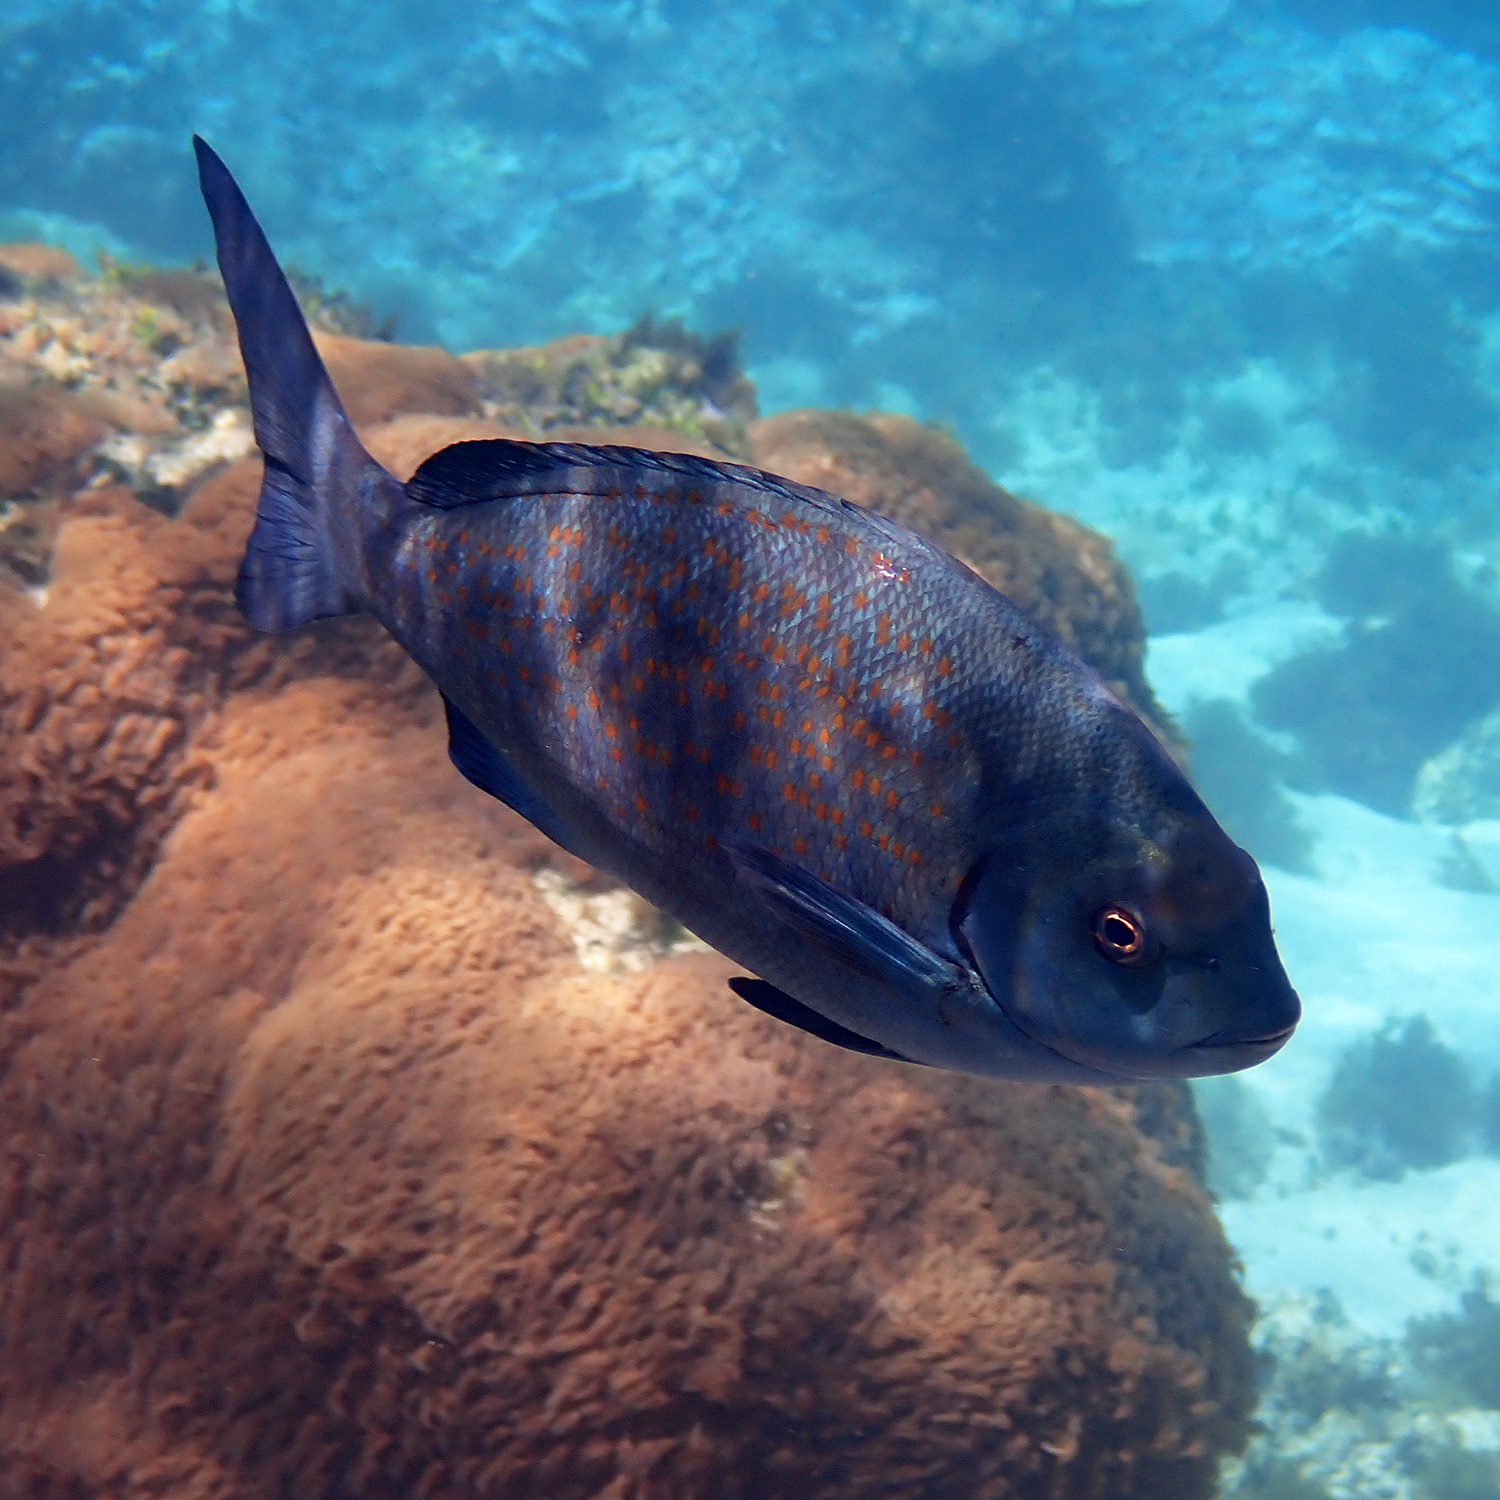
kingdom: Animalia
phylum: Chordata
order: Perciformes
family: Kyphosidae
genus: Girella
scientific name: Girella cyanea
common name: Bluefish
